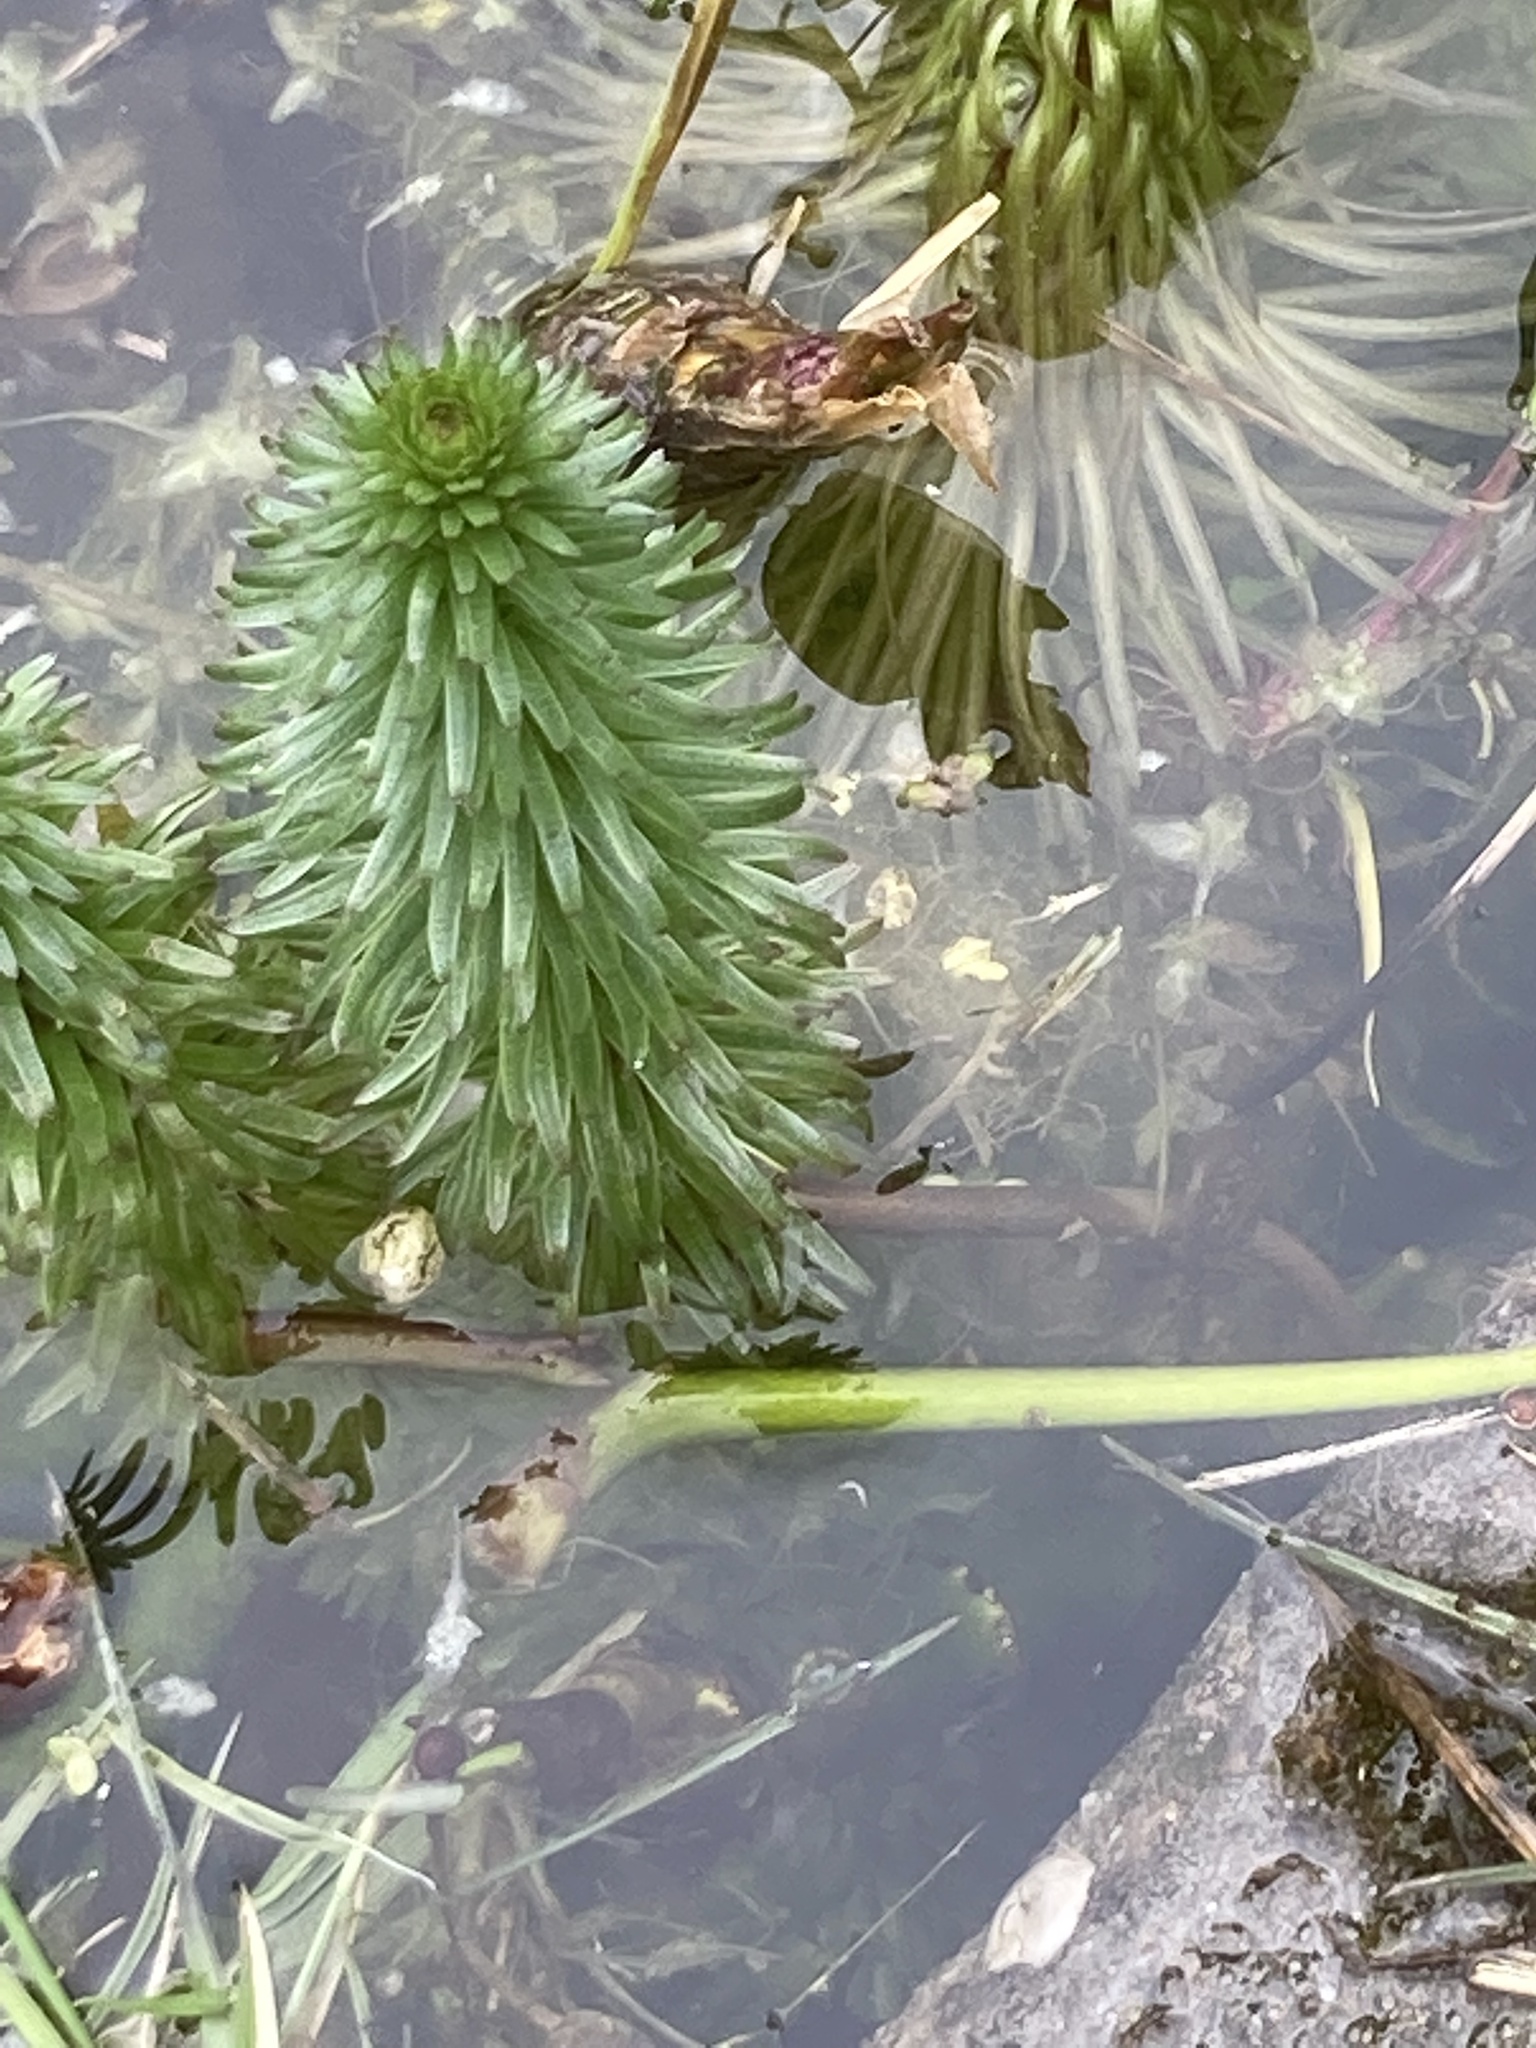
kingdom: Plantae
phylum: Tracheophyta
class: Magnoliopsida
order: Lamiales
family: Plantaginaceae
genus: Hippuris
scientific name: Hippuris vulgaris
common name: Mare's-tail
